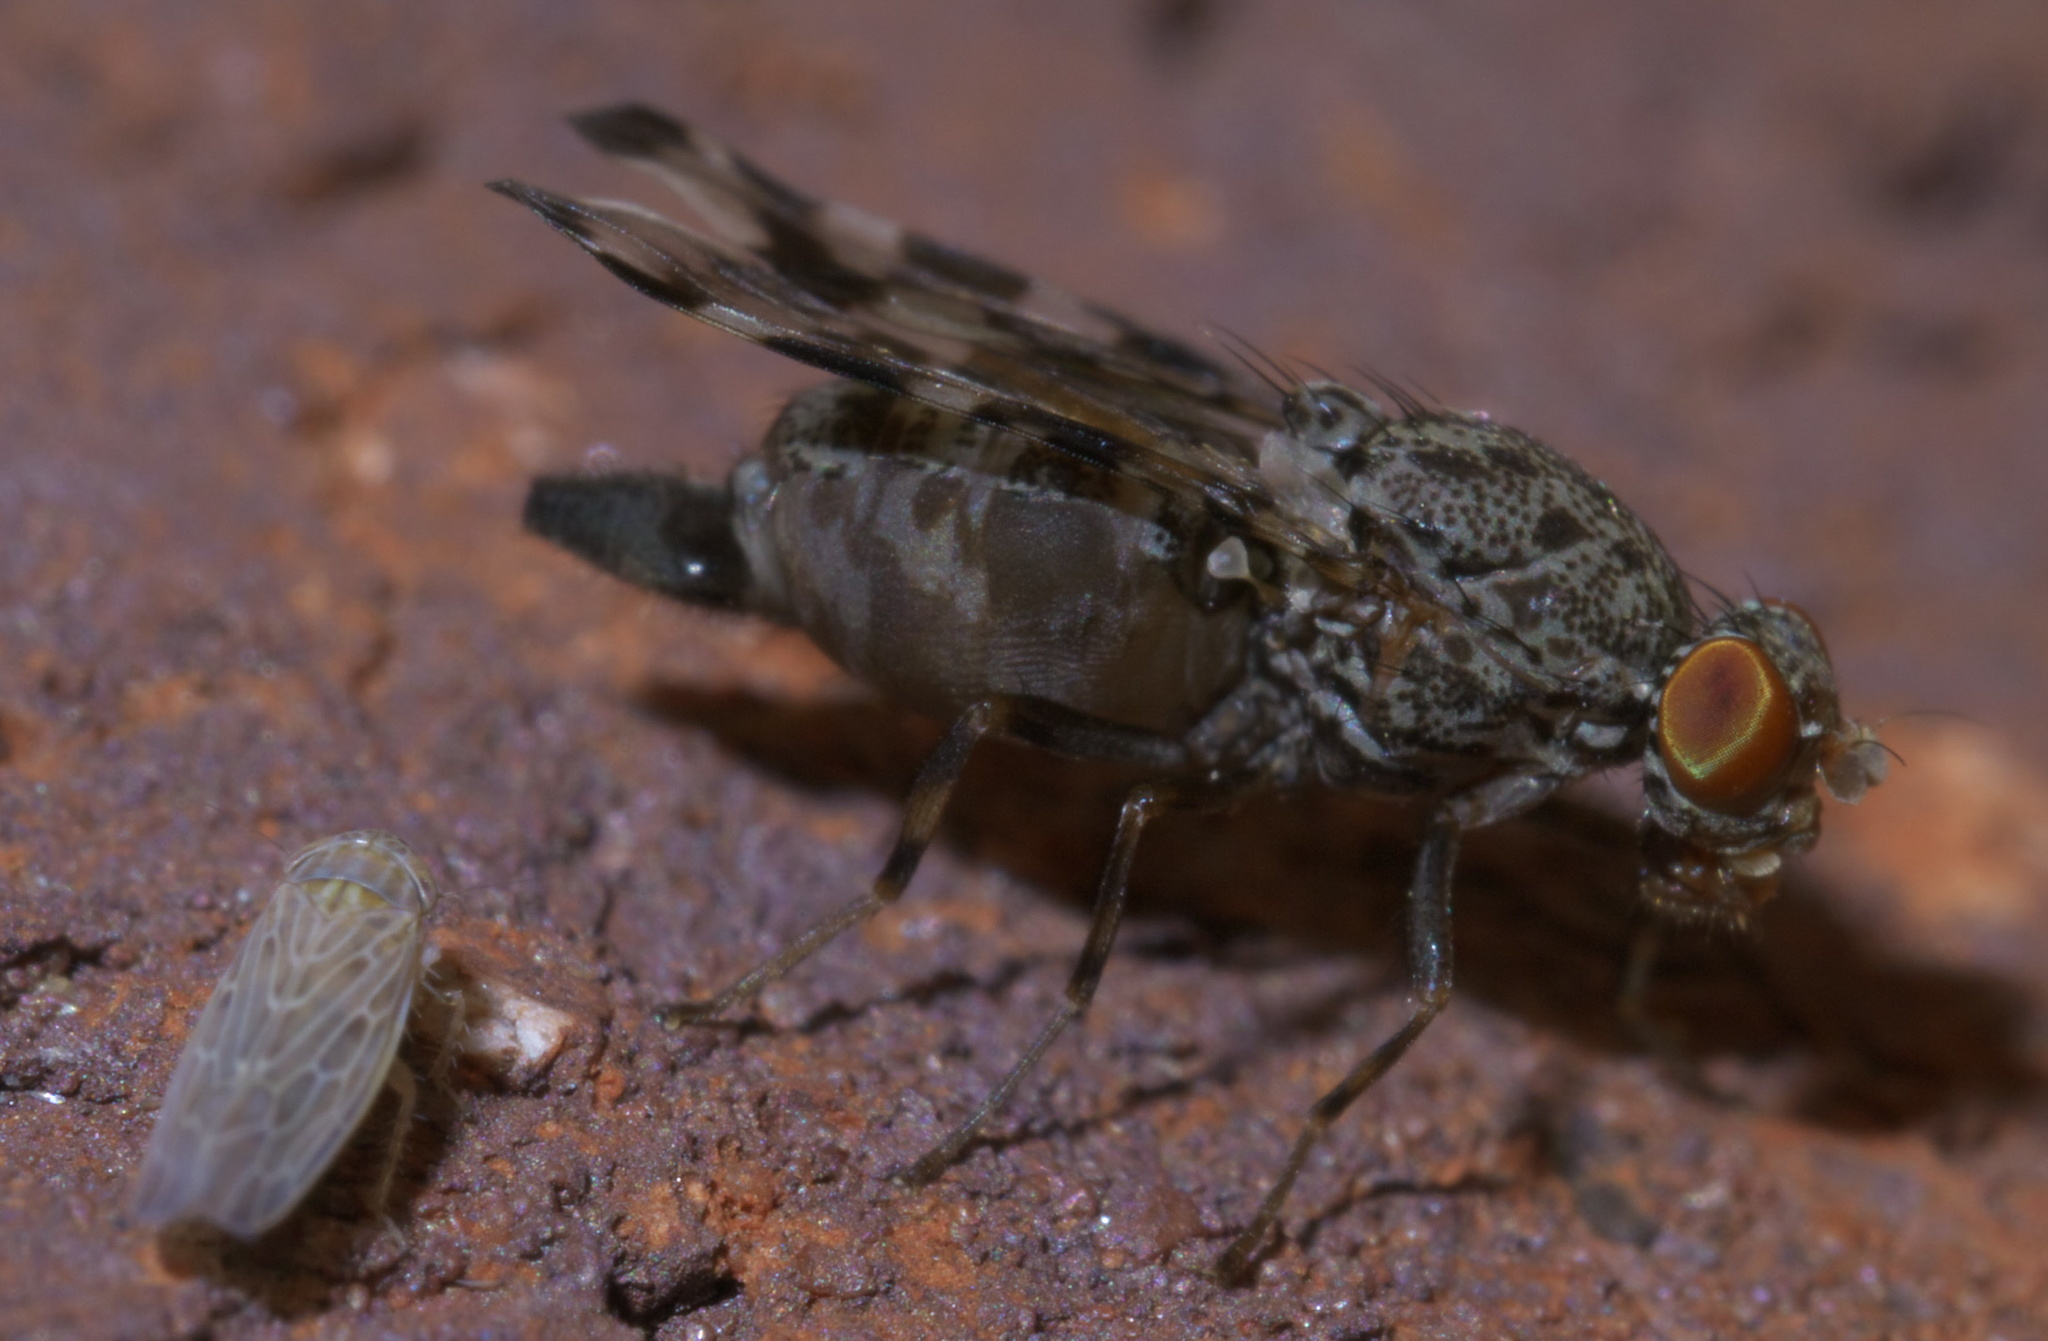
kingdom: Animalia
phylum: Arthropoda
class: Insecta
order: Diptera
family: Ulidiidae
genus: Pseudotephritis
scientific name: Pseudotephritis approximata
